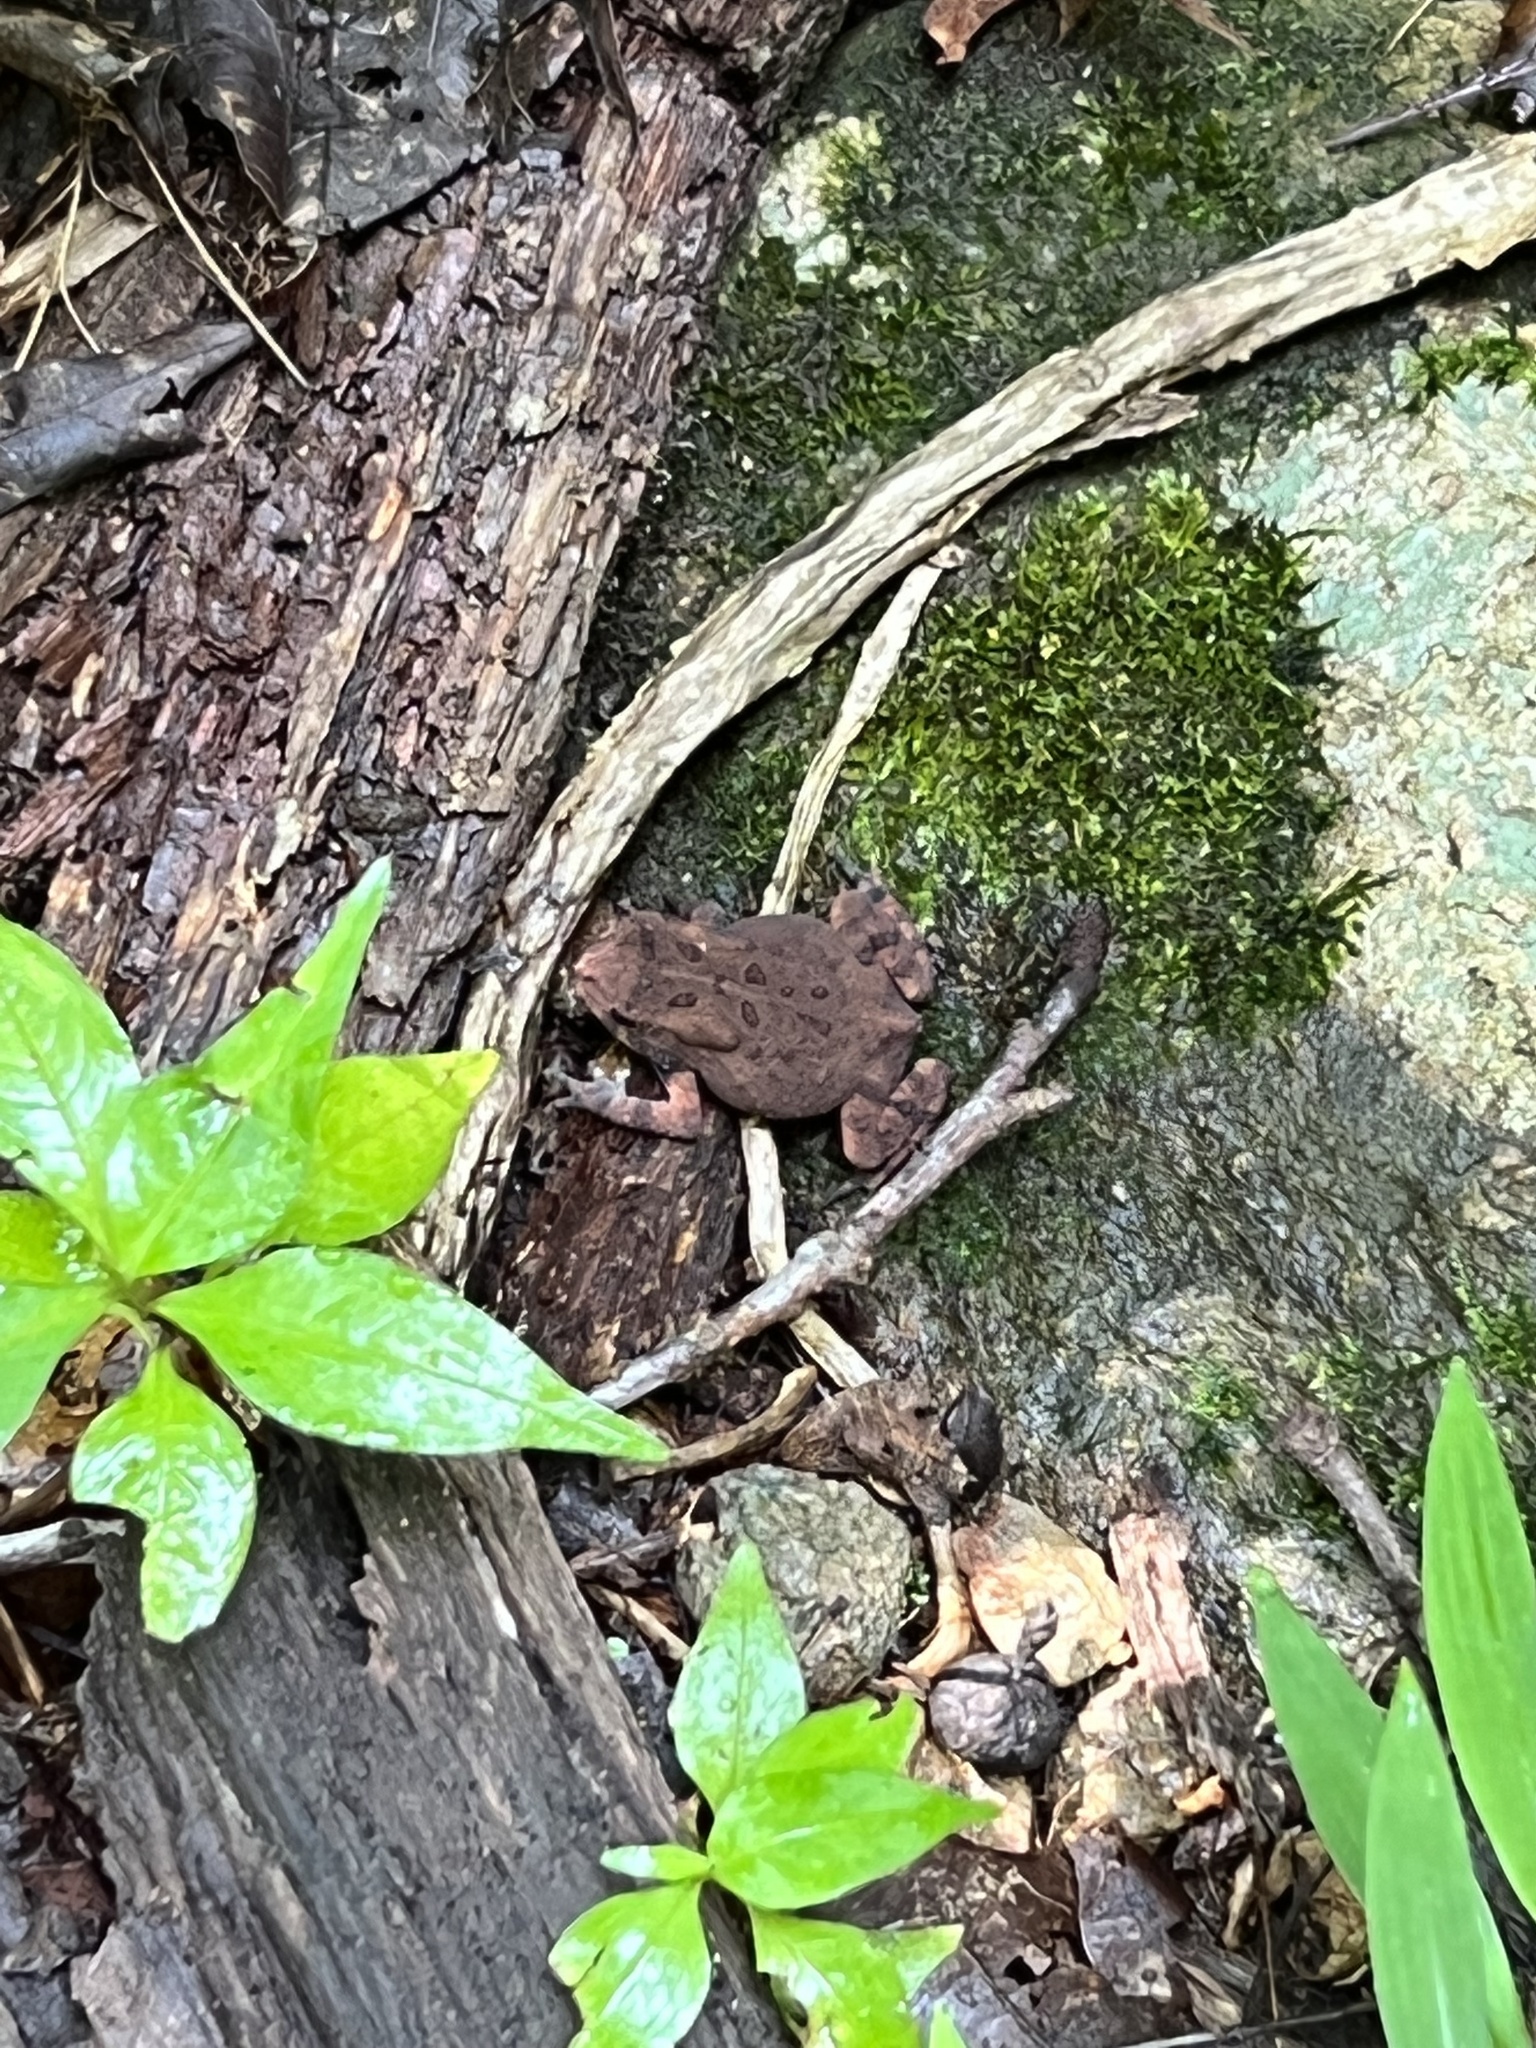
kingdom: Animalia
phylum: Chordata
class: Amphibia
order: Anura
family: Bufonidae
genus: Anaxyrus
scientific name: Anaxyrus americanus
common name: American toad
